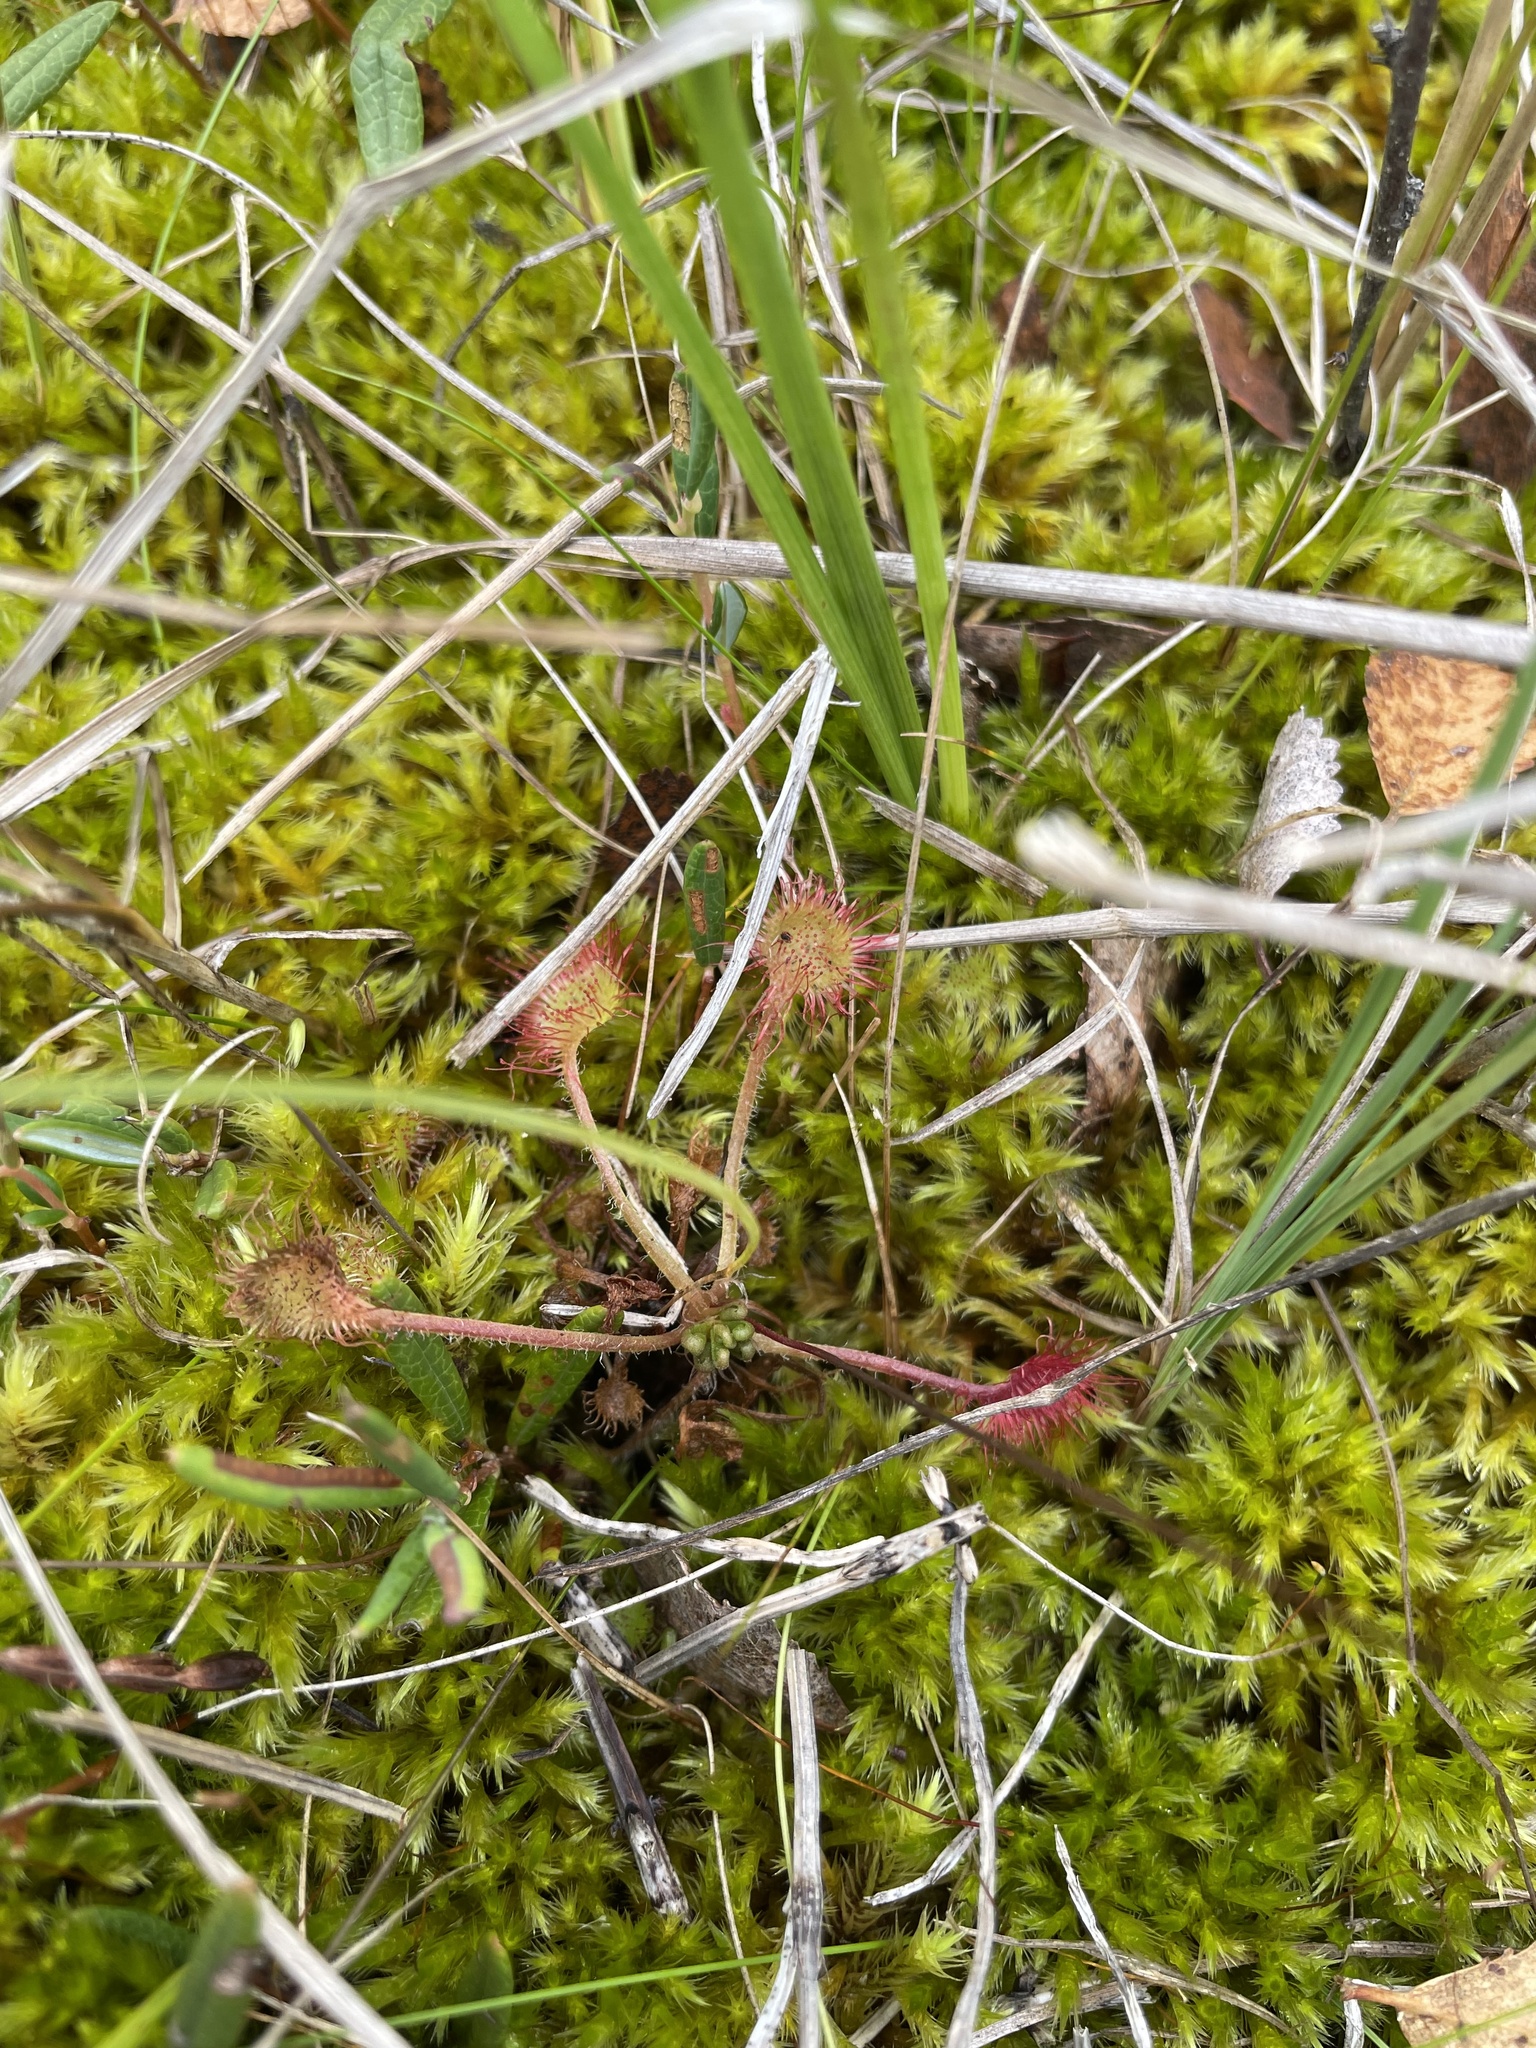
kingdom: Plantae
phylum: Tracheophyta
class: Magnoliopsida
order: Caryophyllales
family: Droseraceae
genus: Drosera
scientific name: Drosera rotundifolia
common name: Round-leaved sundew
